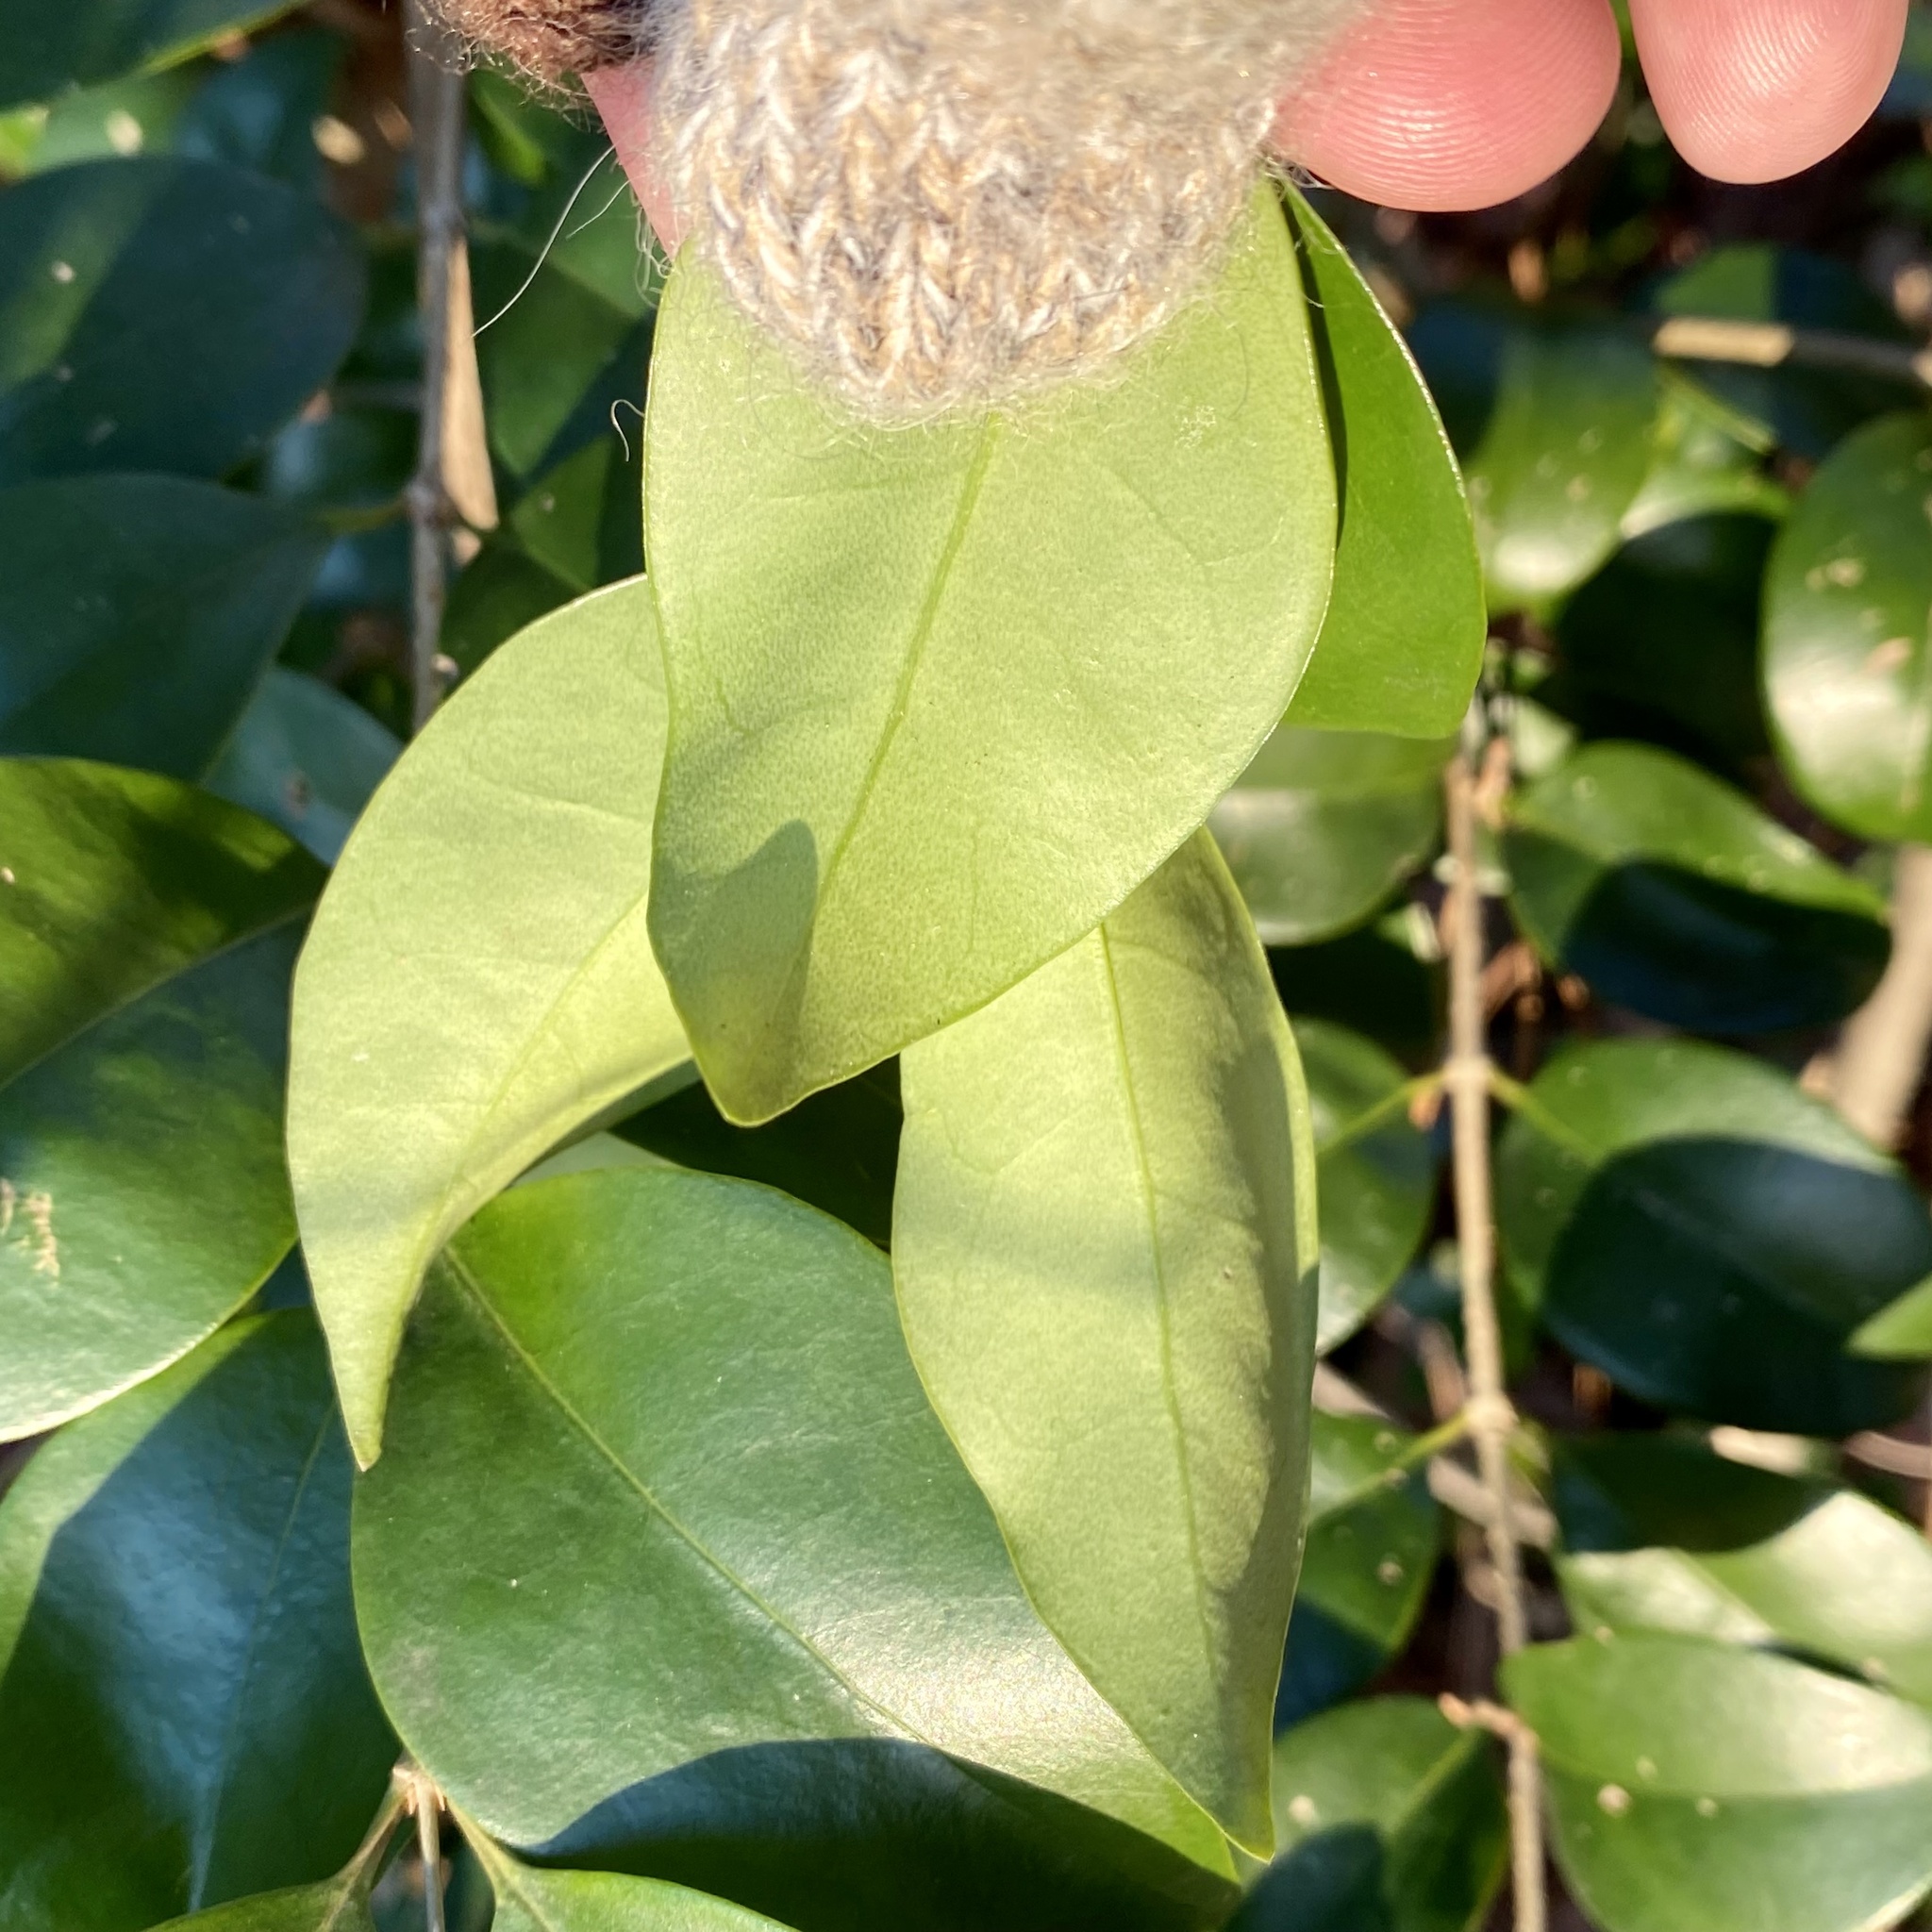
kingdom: Plantae
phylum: Tracheophyta
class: Magnoliopsida
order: Lamiales
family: Oleaceae
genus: Ligustrum
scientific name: Ligustrum japonicum
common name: Japanese privet
